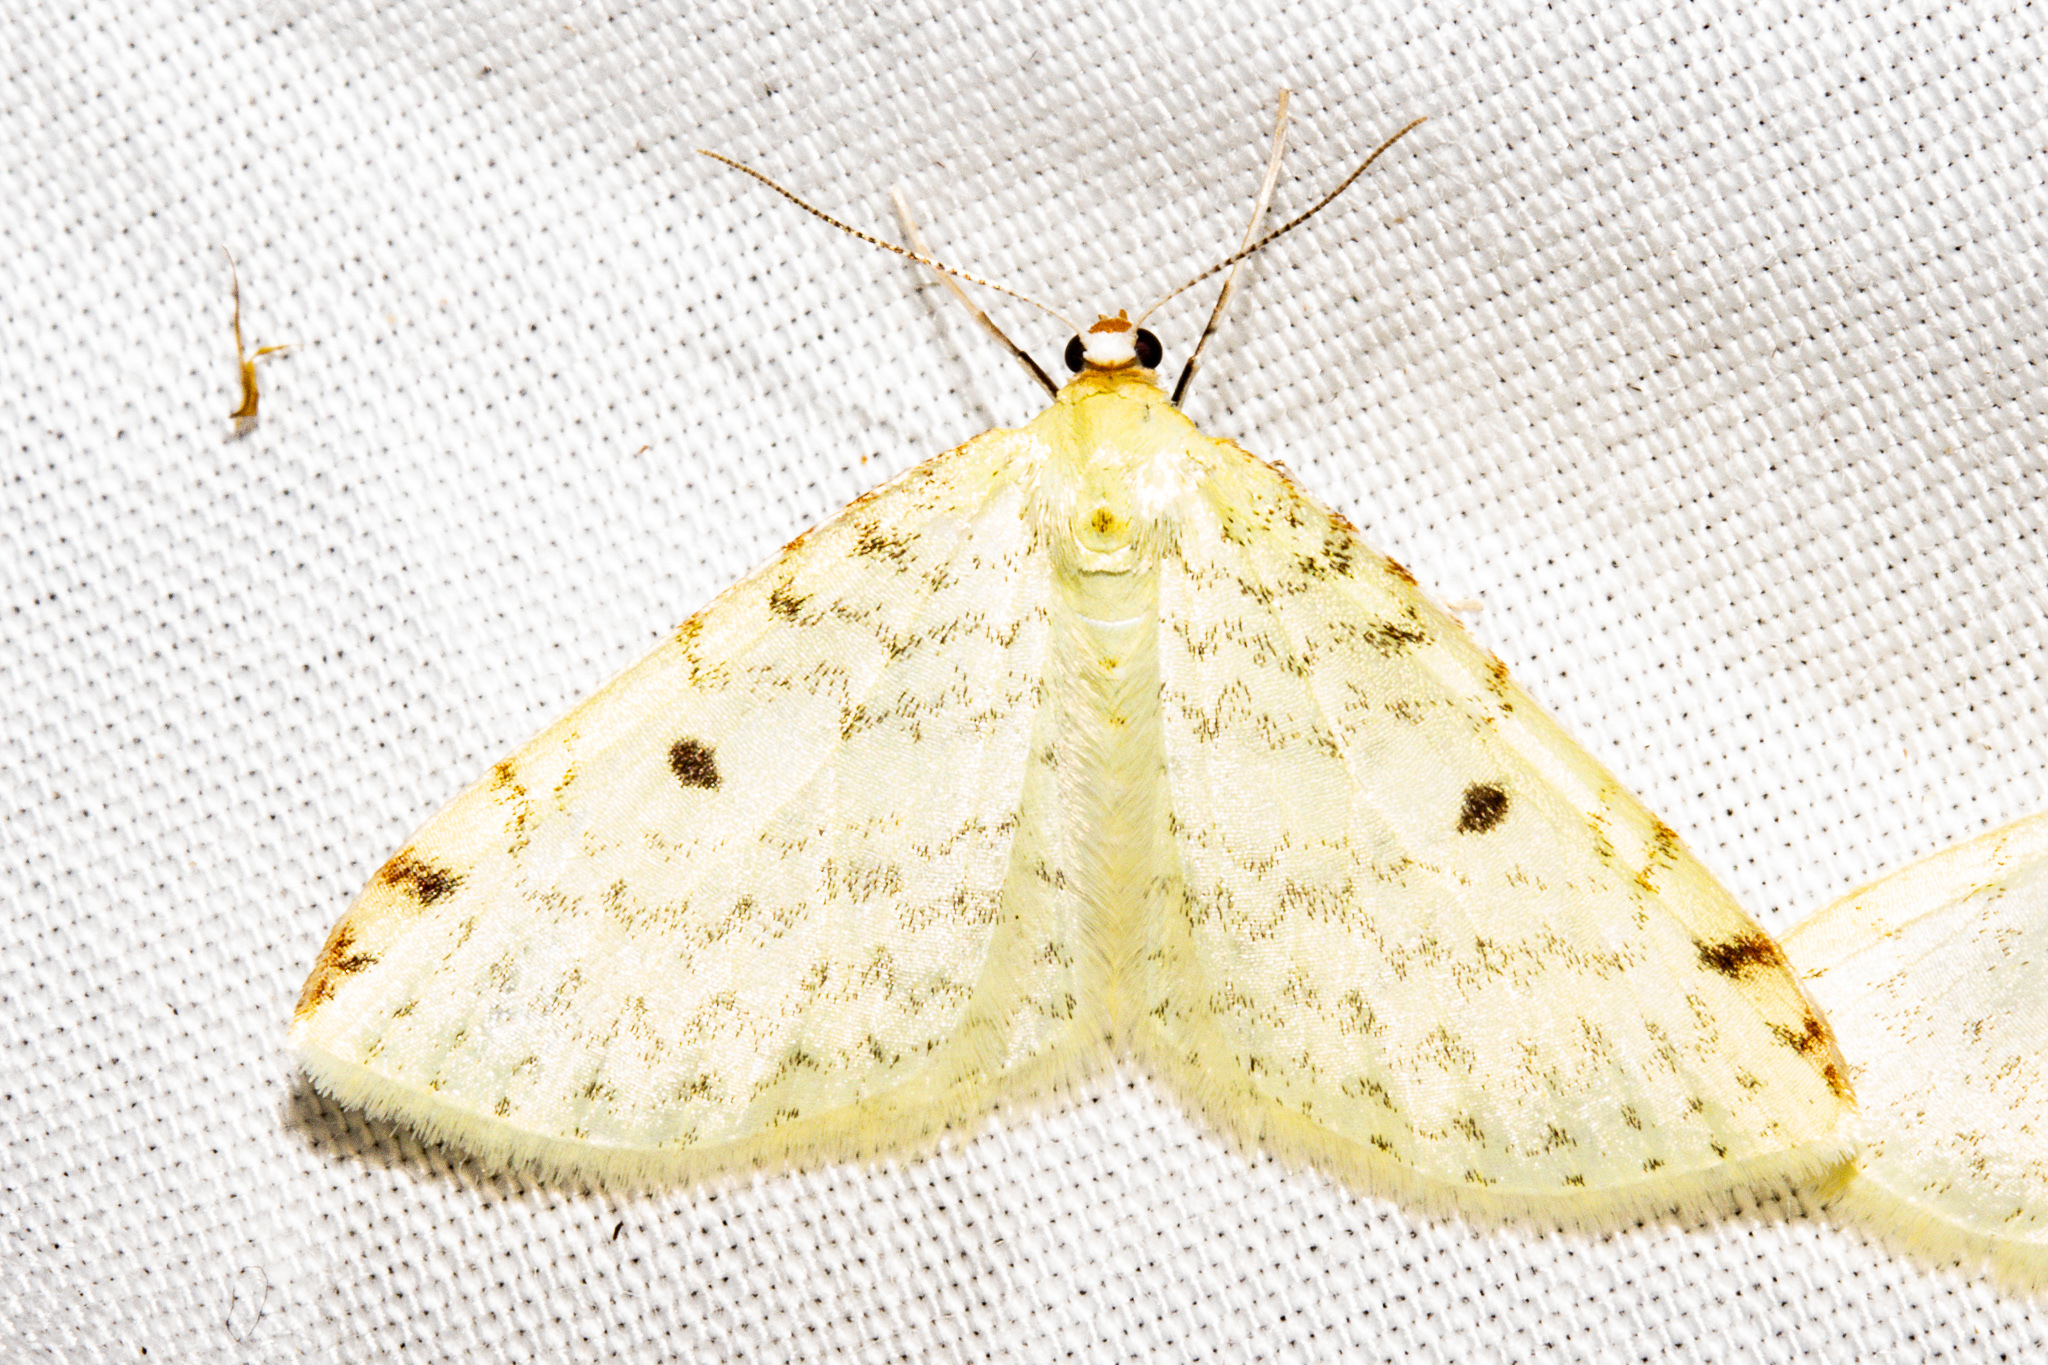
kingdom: Animalia
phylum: Arthropoda
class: Insecta
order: Lepidoptera
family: Geometridae
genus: Epiphryne
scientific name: Epiphryne undosata
